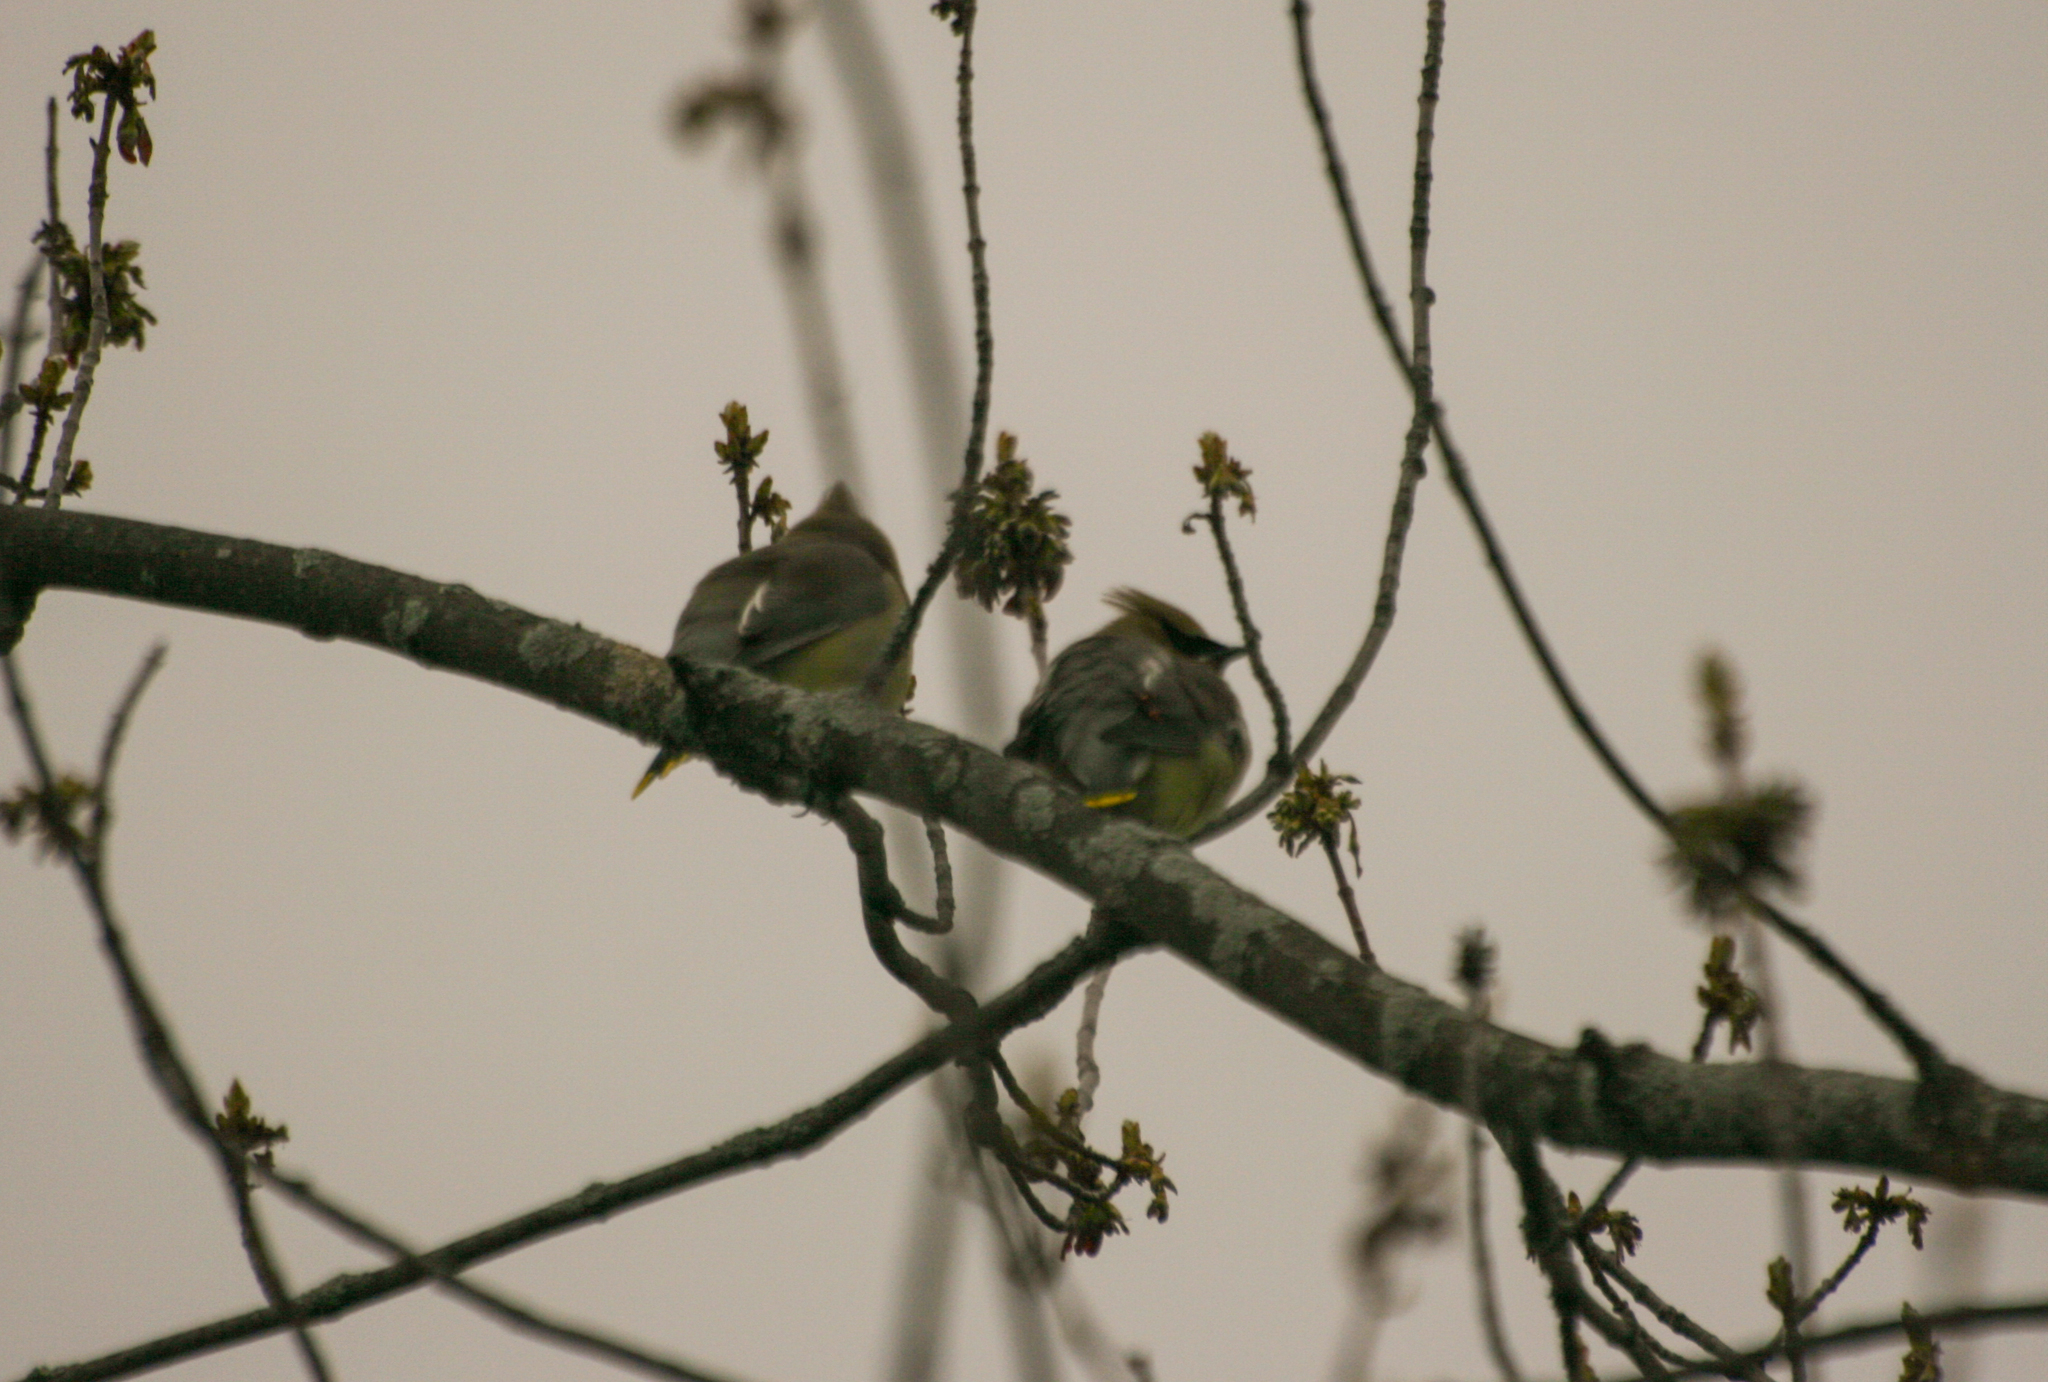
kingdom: Animalia
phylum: Chordata
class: Aves
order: Passeriformes
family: Bombycillidae
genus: Bombycilla
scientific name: Bombycilla cedrorum
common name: Cedar waxwing
